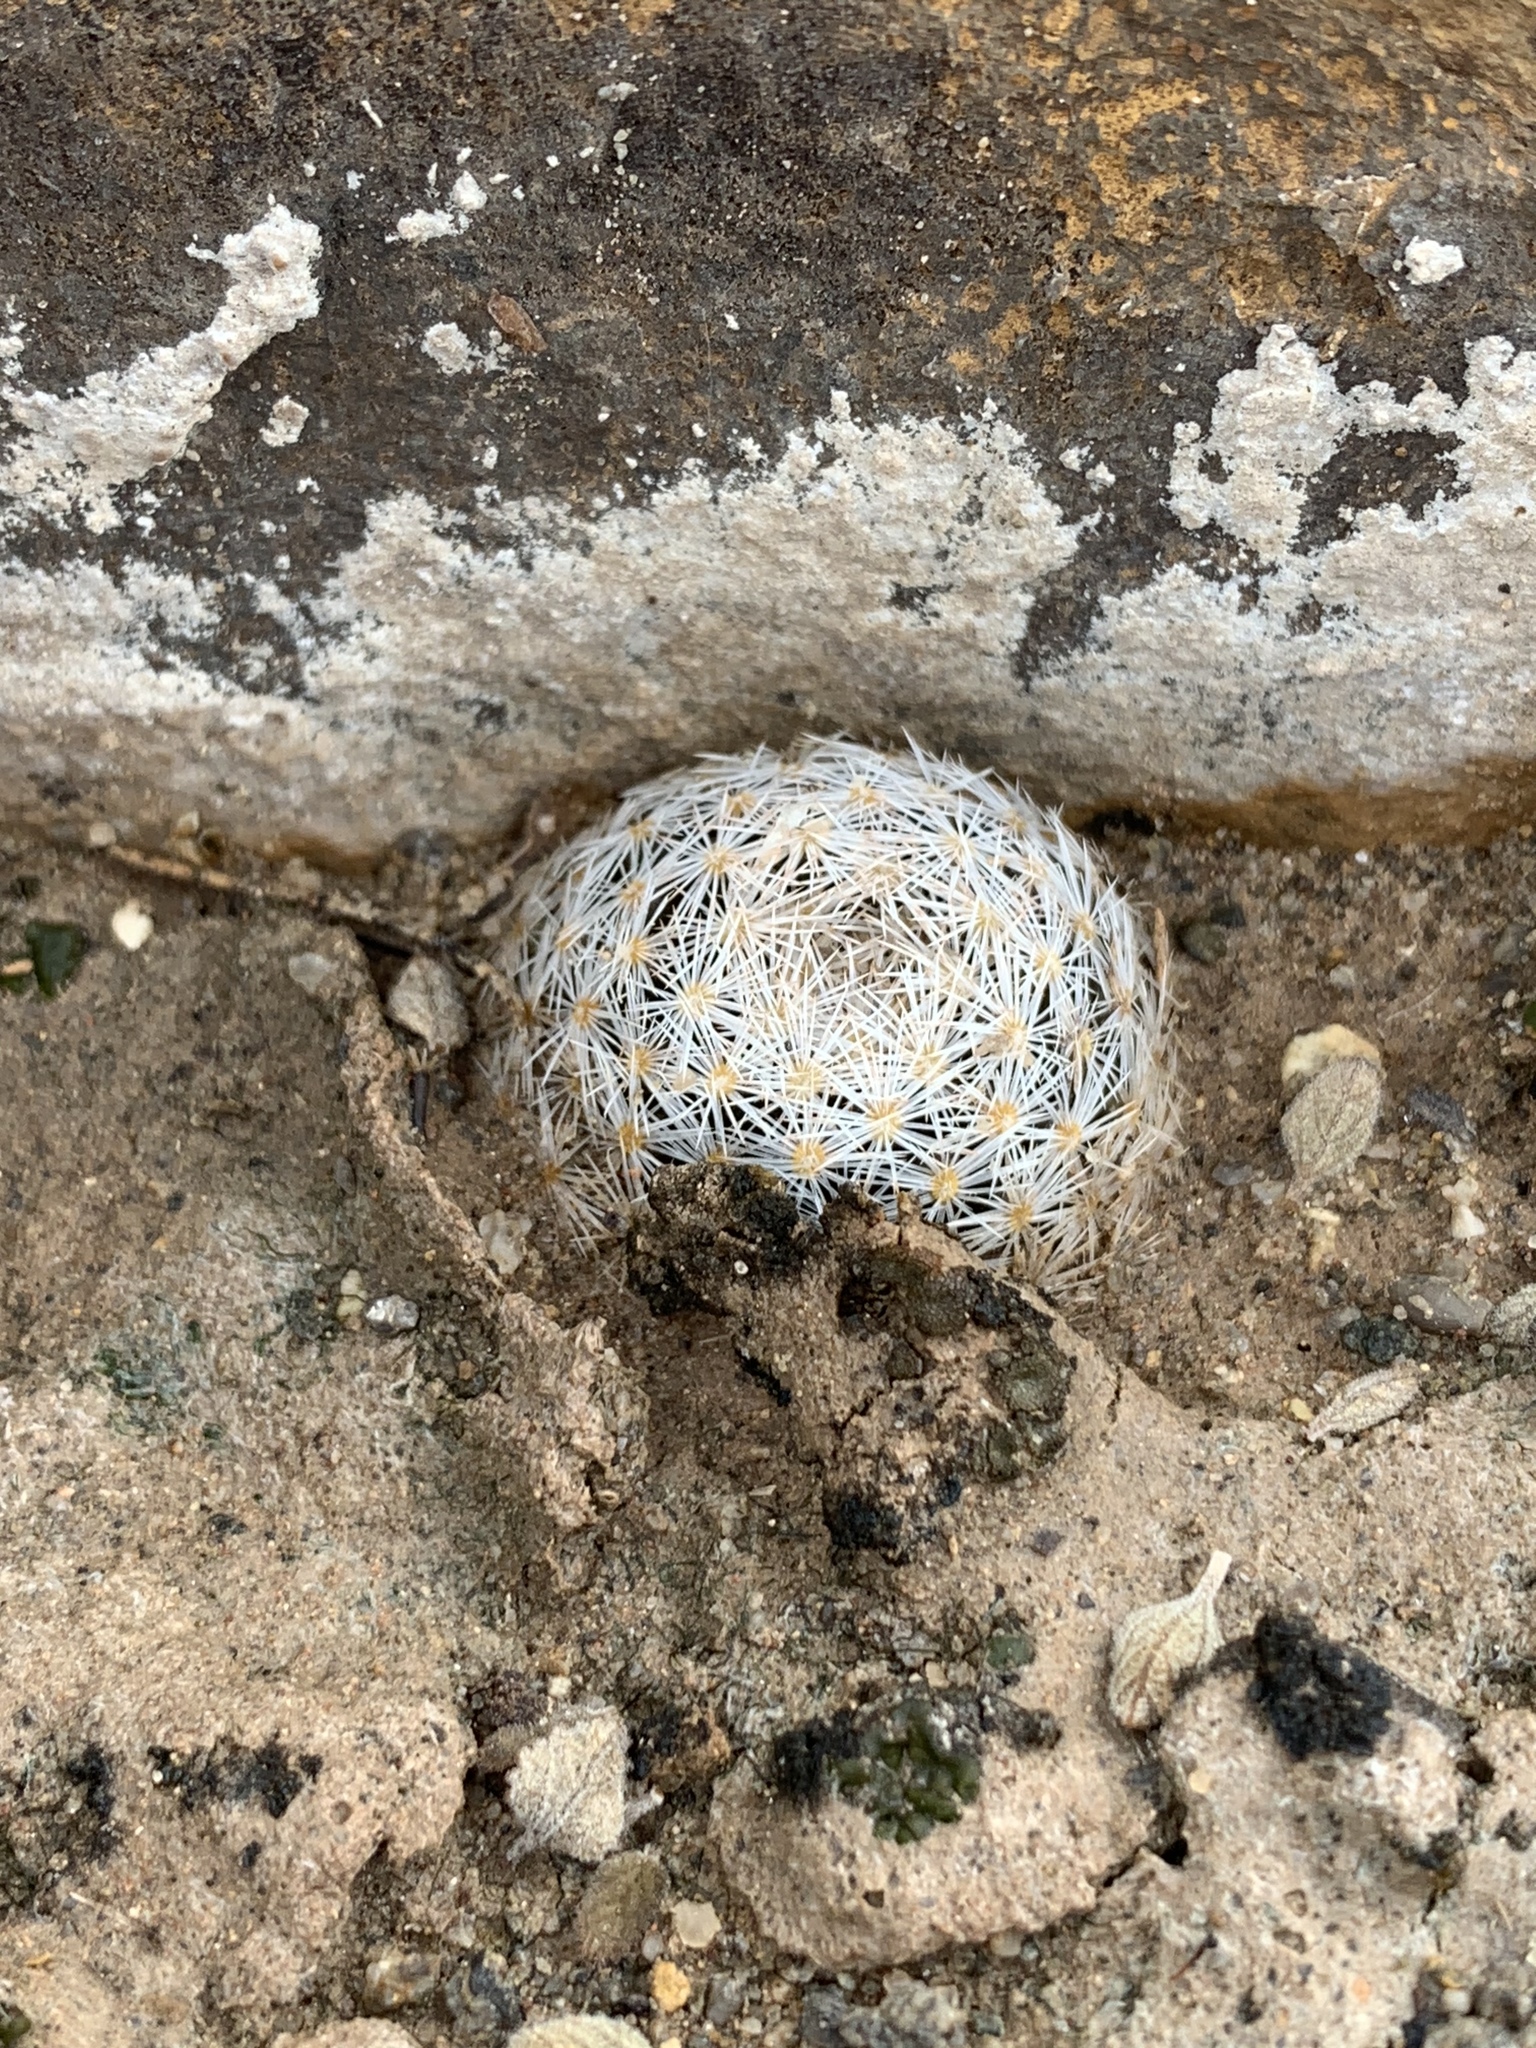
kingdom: Plantae
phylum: Tracheophyta
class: Magnoliopsida
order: Caryophyllales
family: Cactaceae
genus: Mammillaria
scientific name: Mammillaria lasiacantha
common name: Lace-spine nipple cactus
